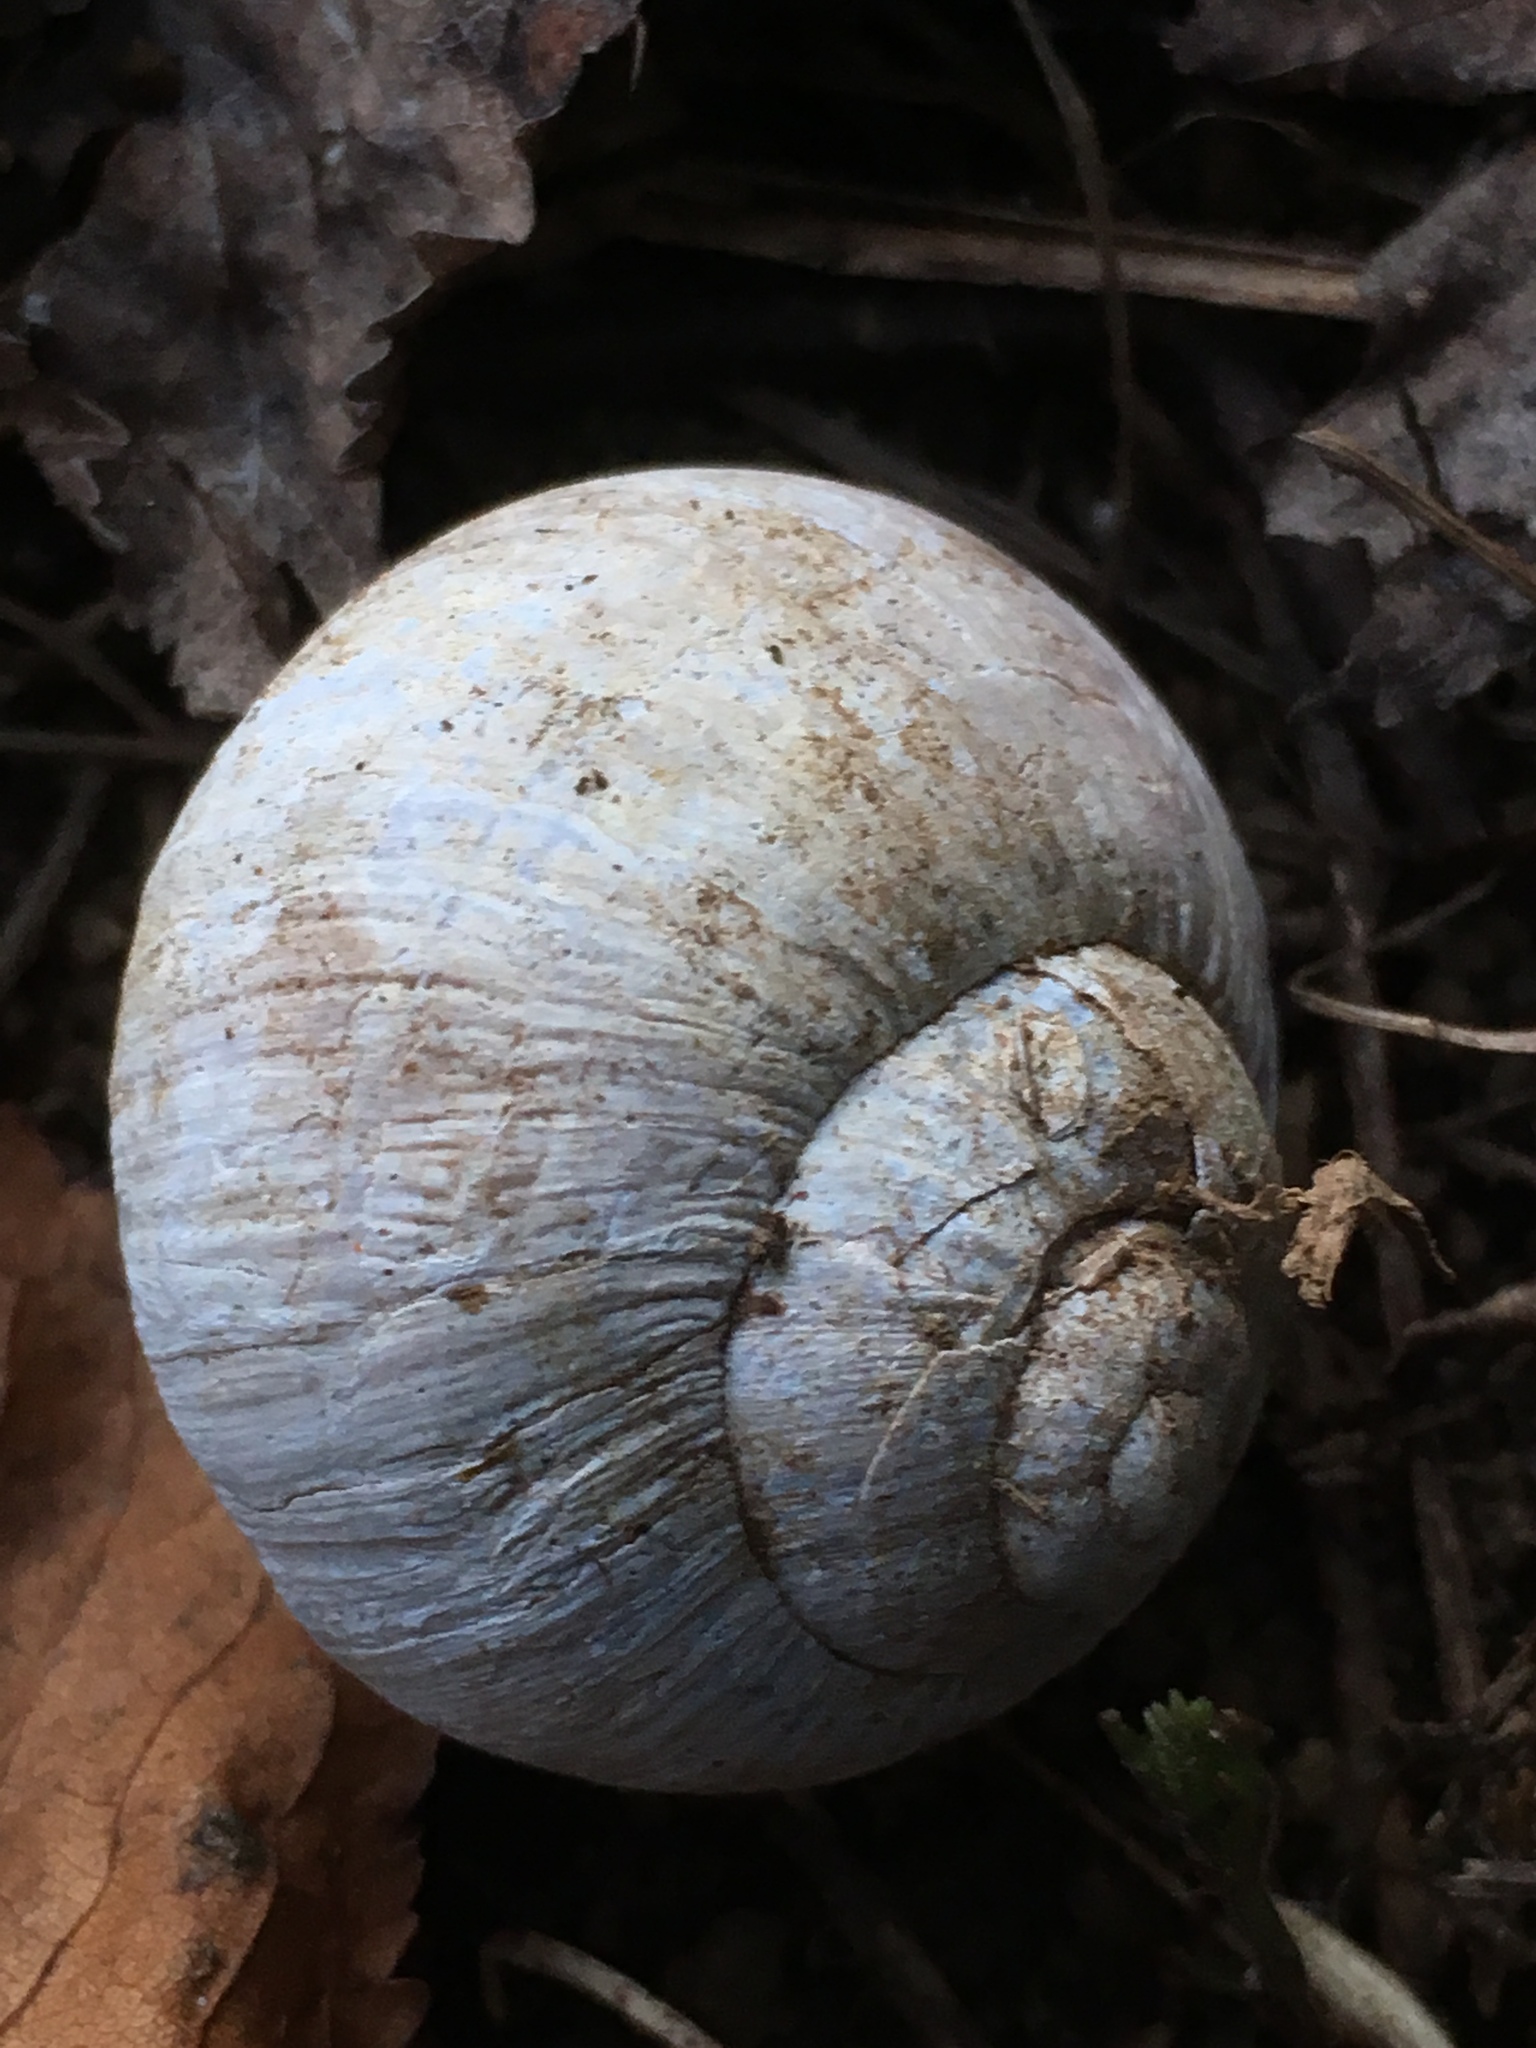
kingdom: Animalia
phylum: Mollusca
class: Gastropoda
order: Stylommatophora
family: Helicidae
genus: Helix
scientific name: Helix pomatia
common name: Roman snail
